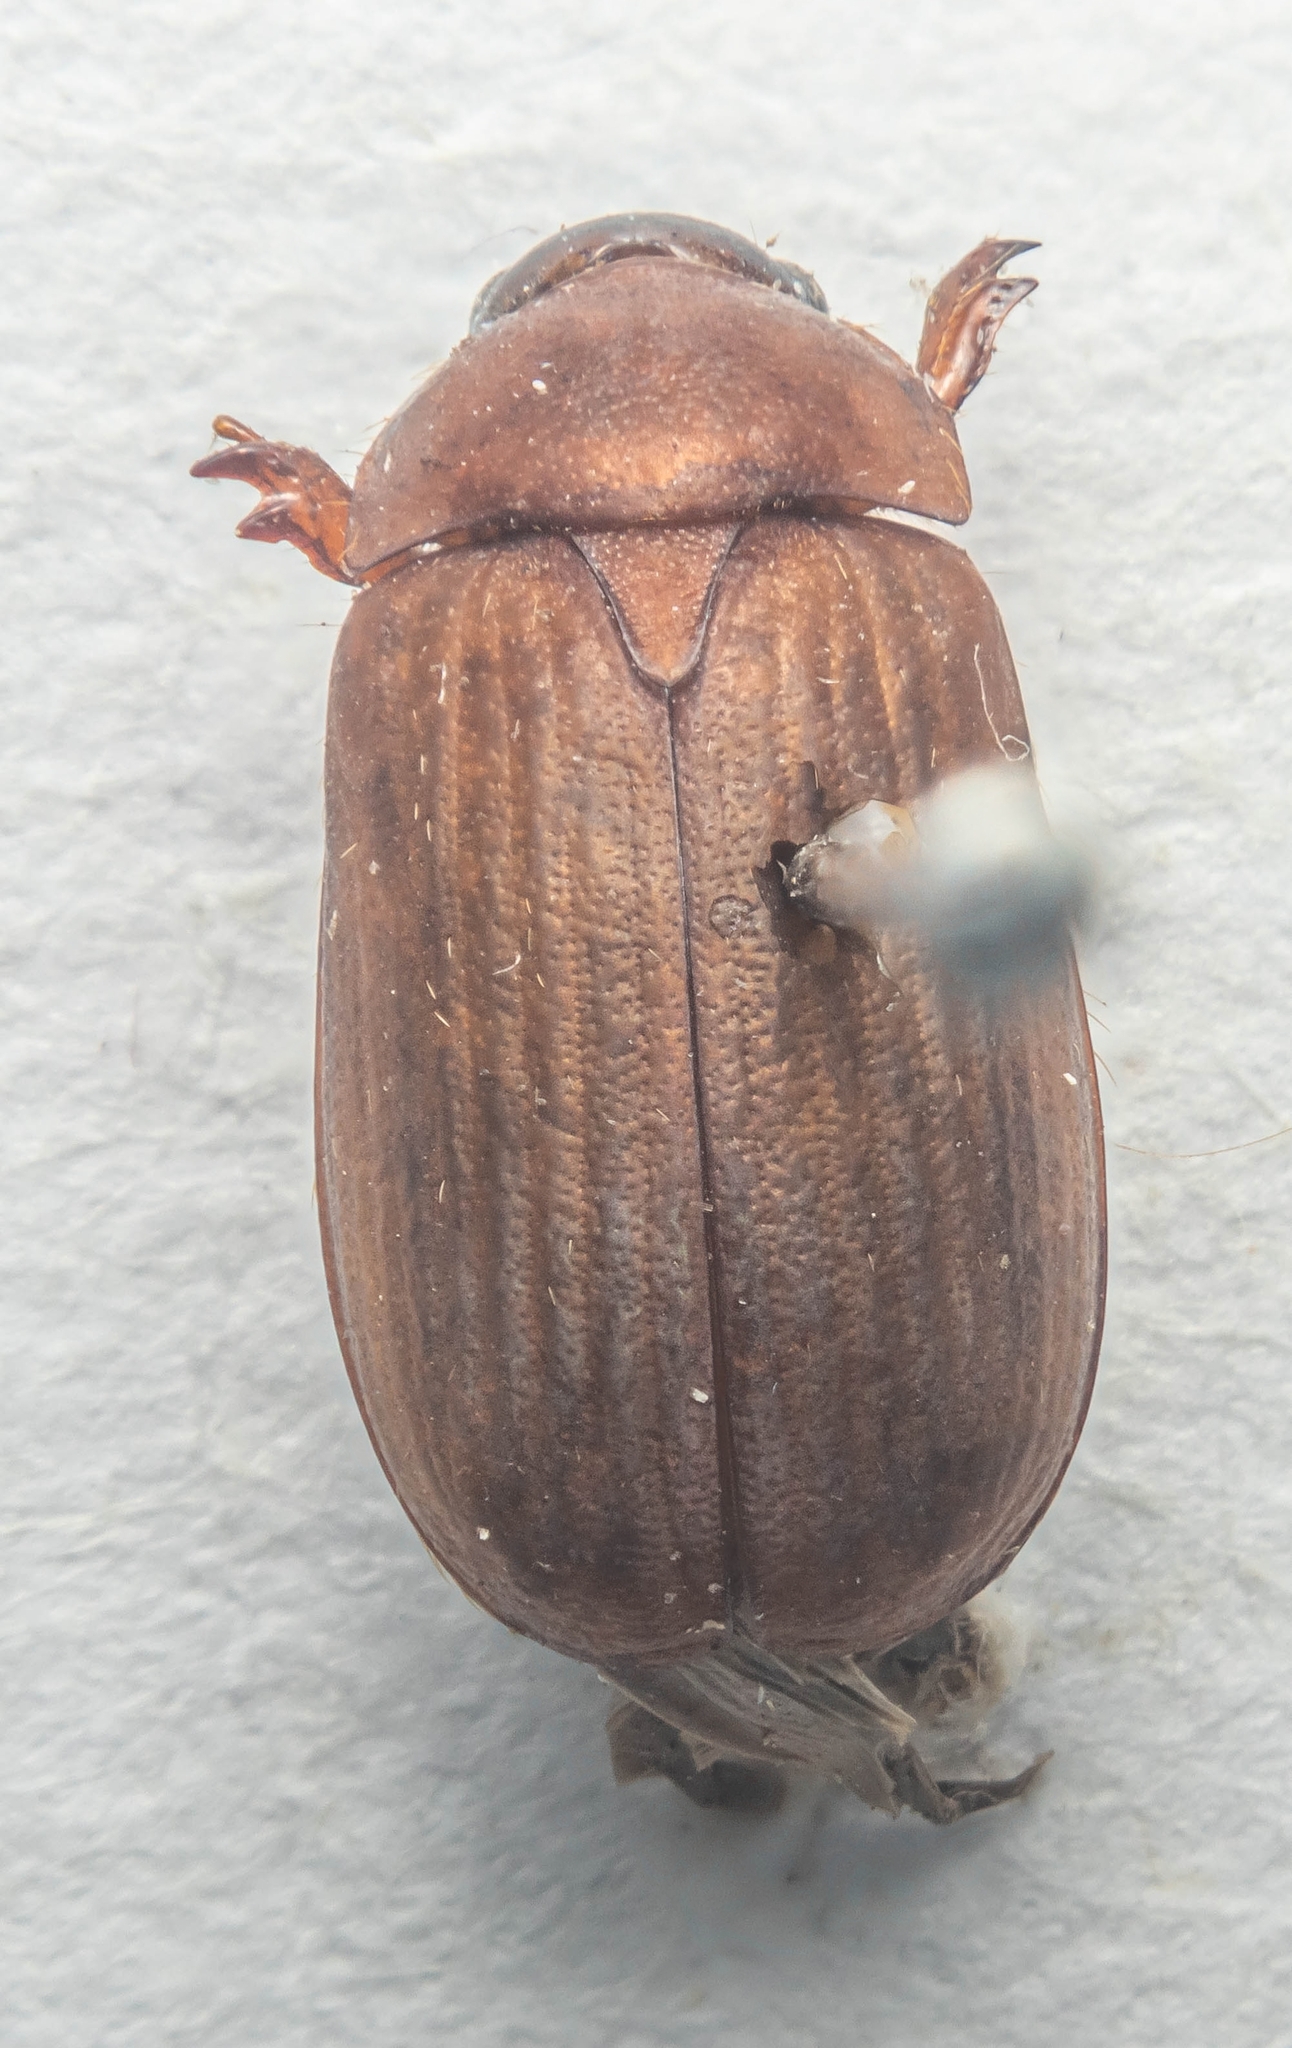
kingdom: Animalia
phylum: Arthropoda
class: Insecta
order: Coleoptera
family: Scarabaeidae
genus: Serica
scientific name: Serica brunnea
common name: Brown chafer
